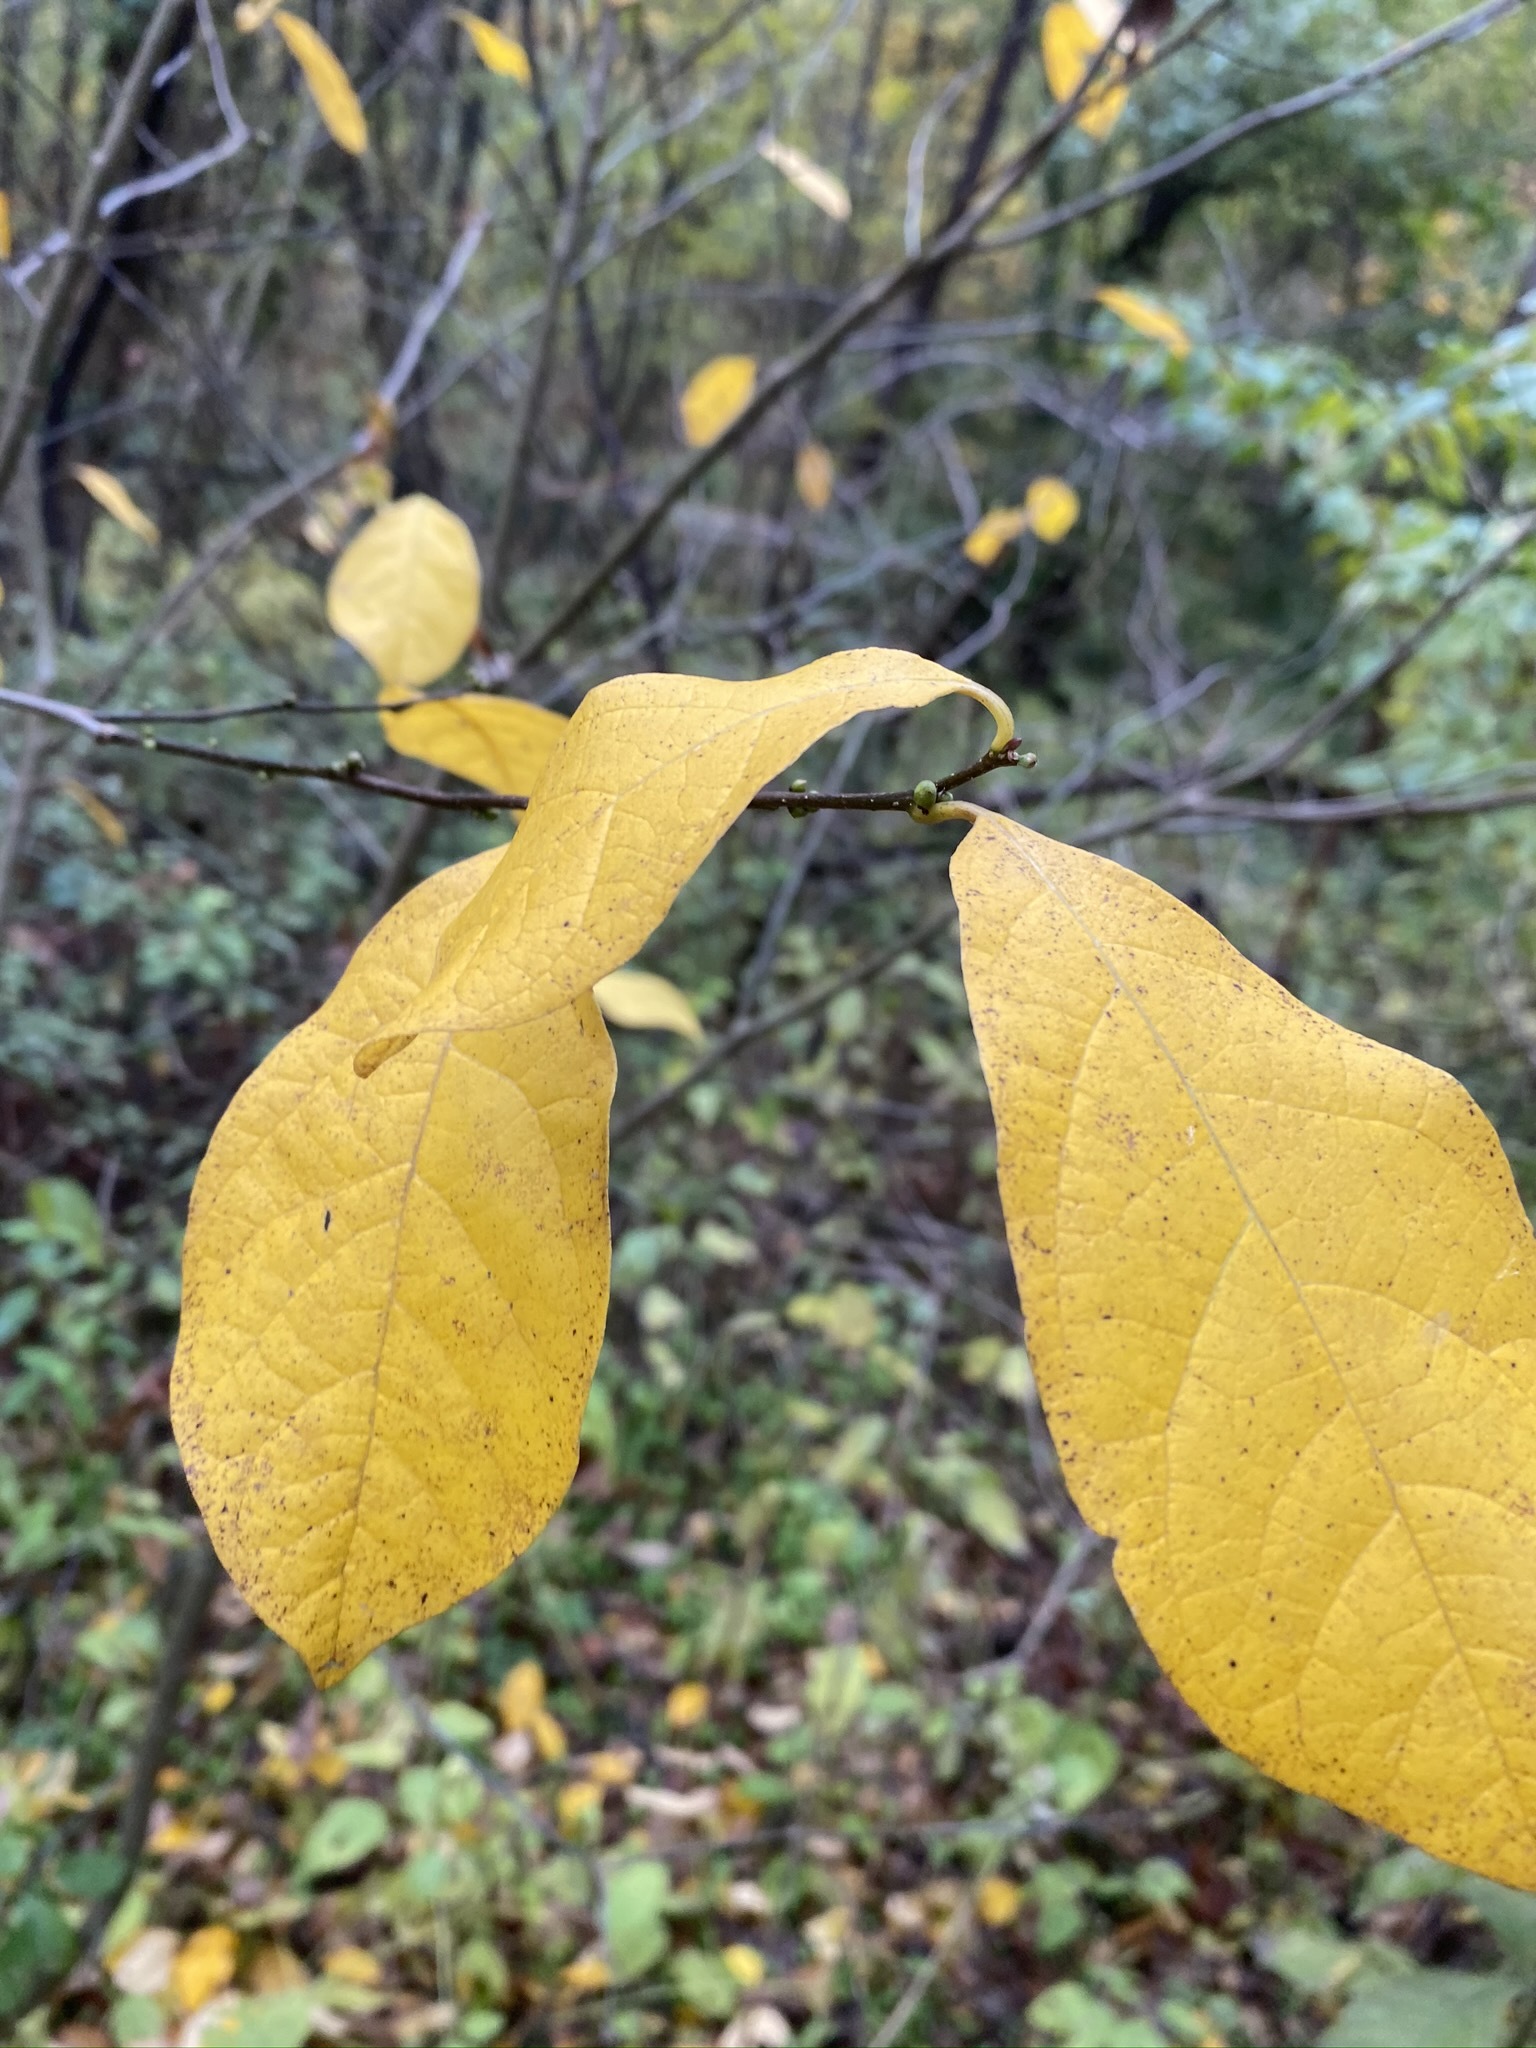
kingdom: Plantae
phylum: Tracheophyta
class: Magnoliopsida
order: Laurales
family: Lauraceae
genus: Lindera
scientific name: Lindera benzoin
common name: Spicebush
